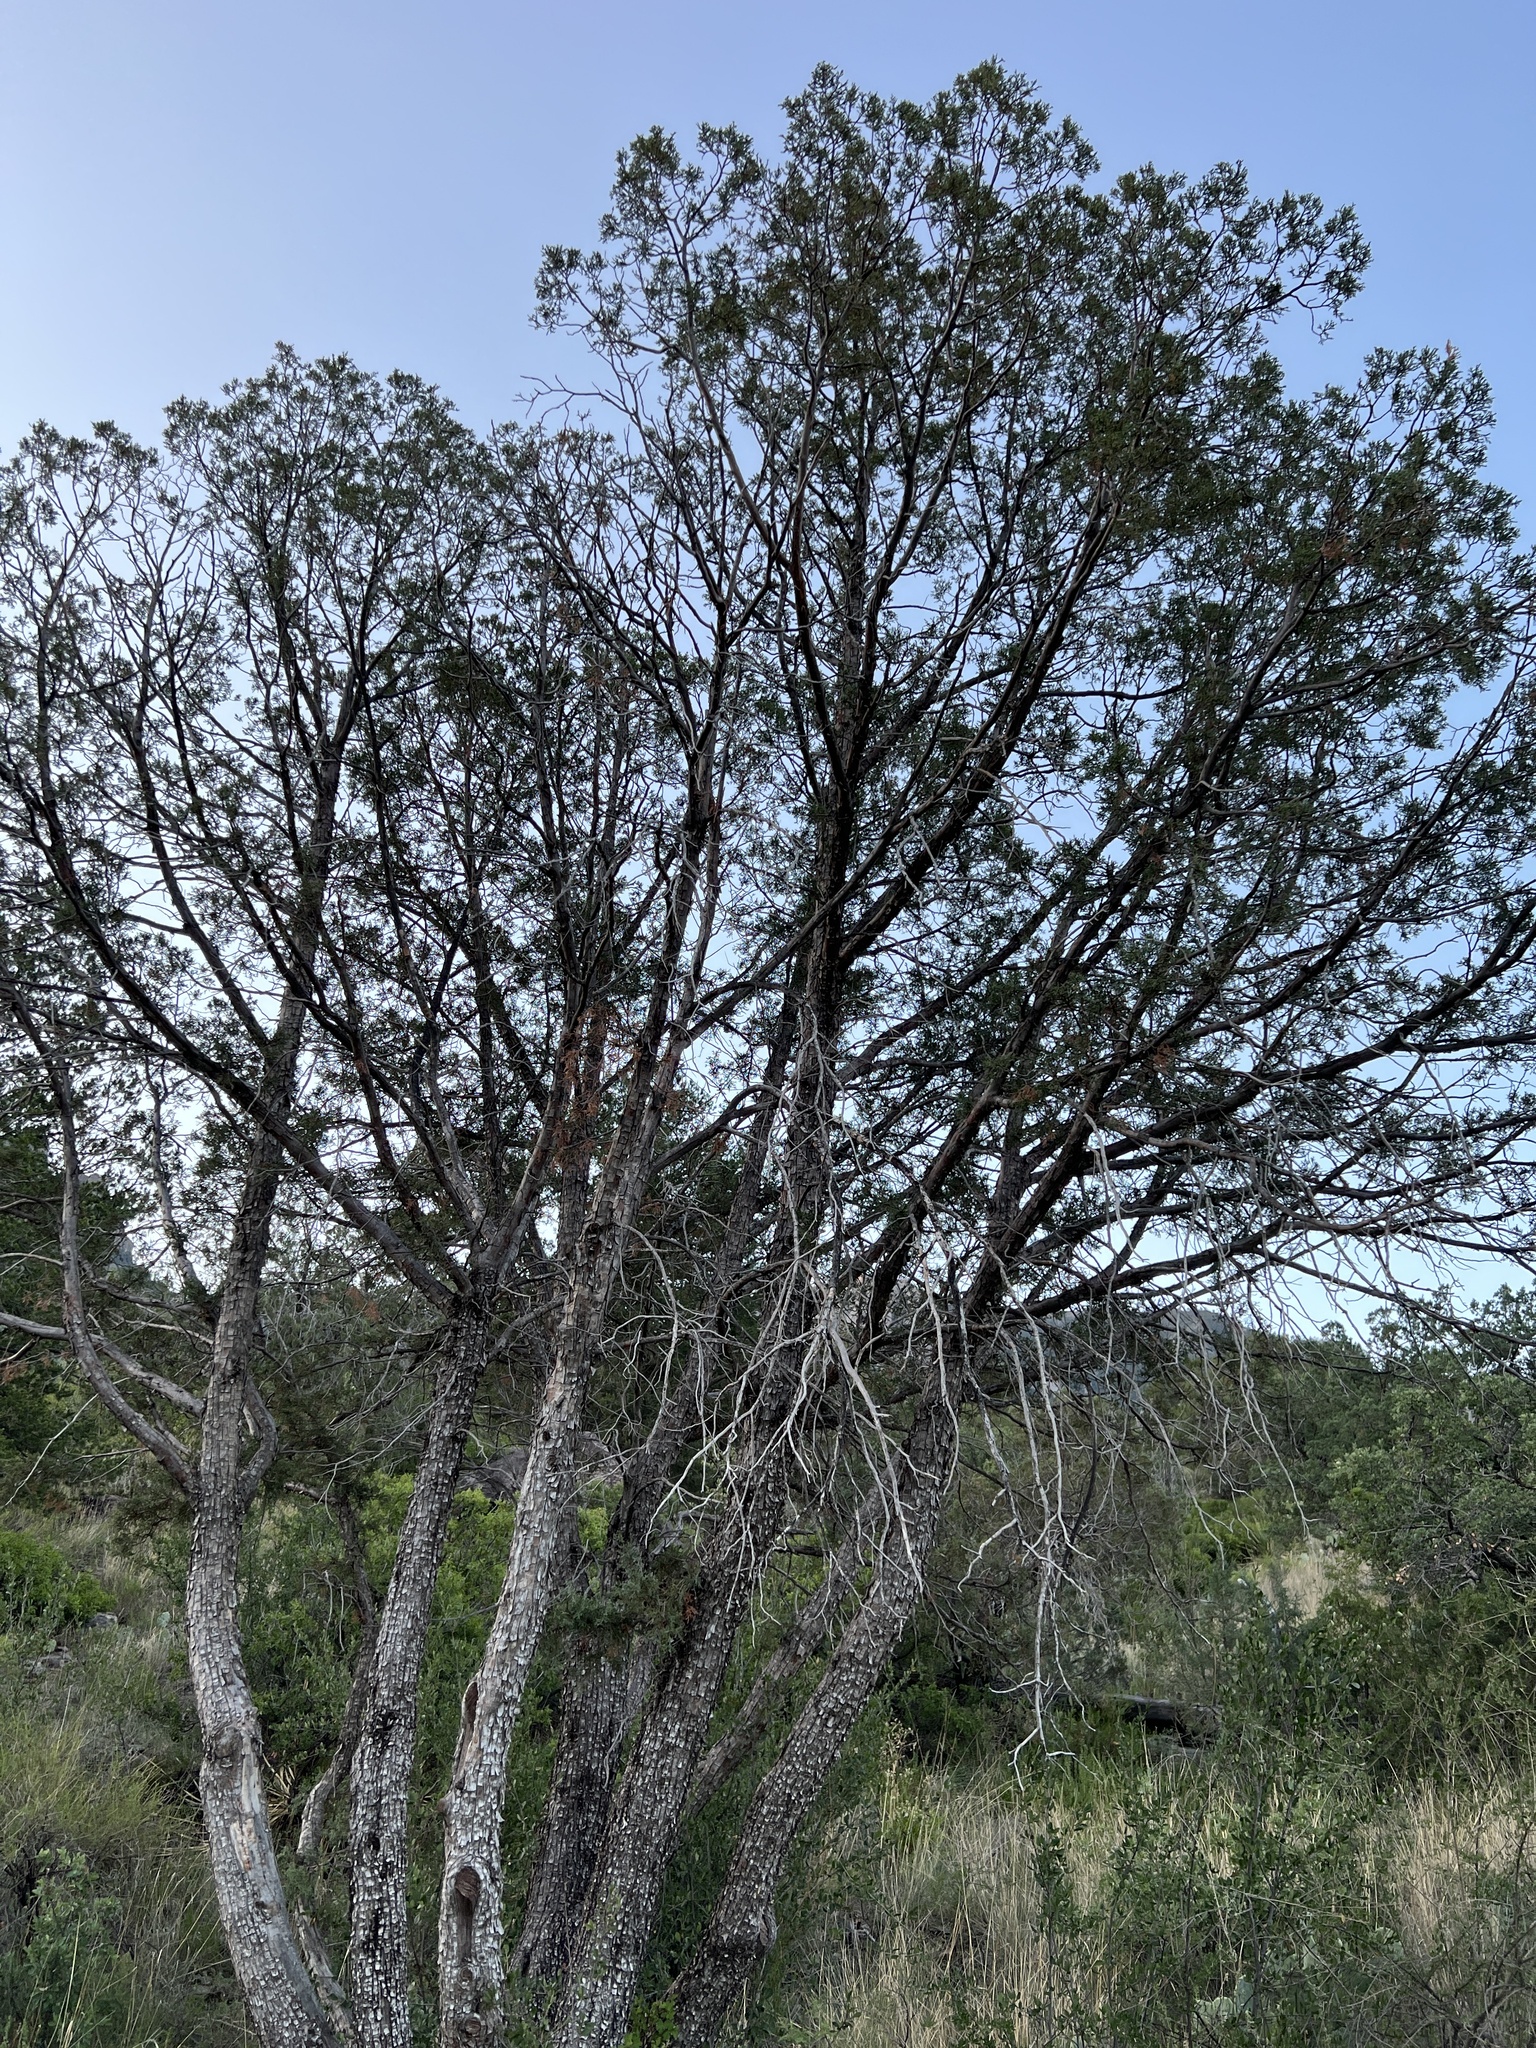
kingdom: Plantae
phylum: Tracheophyta
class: Pinopsida
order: Pinales
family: Cupressaceae
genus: Juniperus
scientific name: Juniperus deppeana
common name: Alligator juniper
